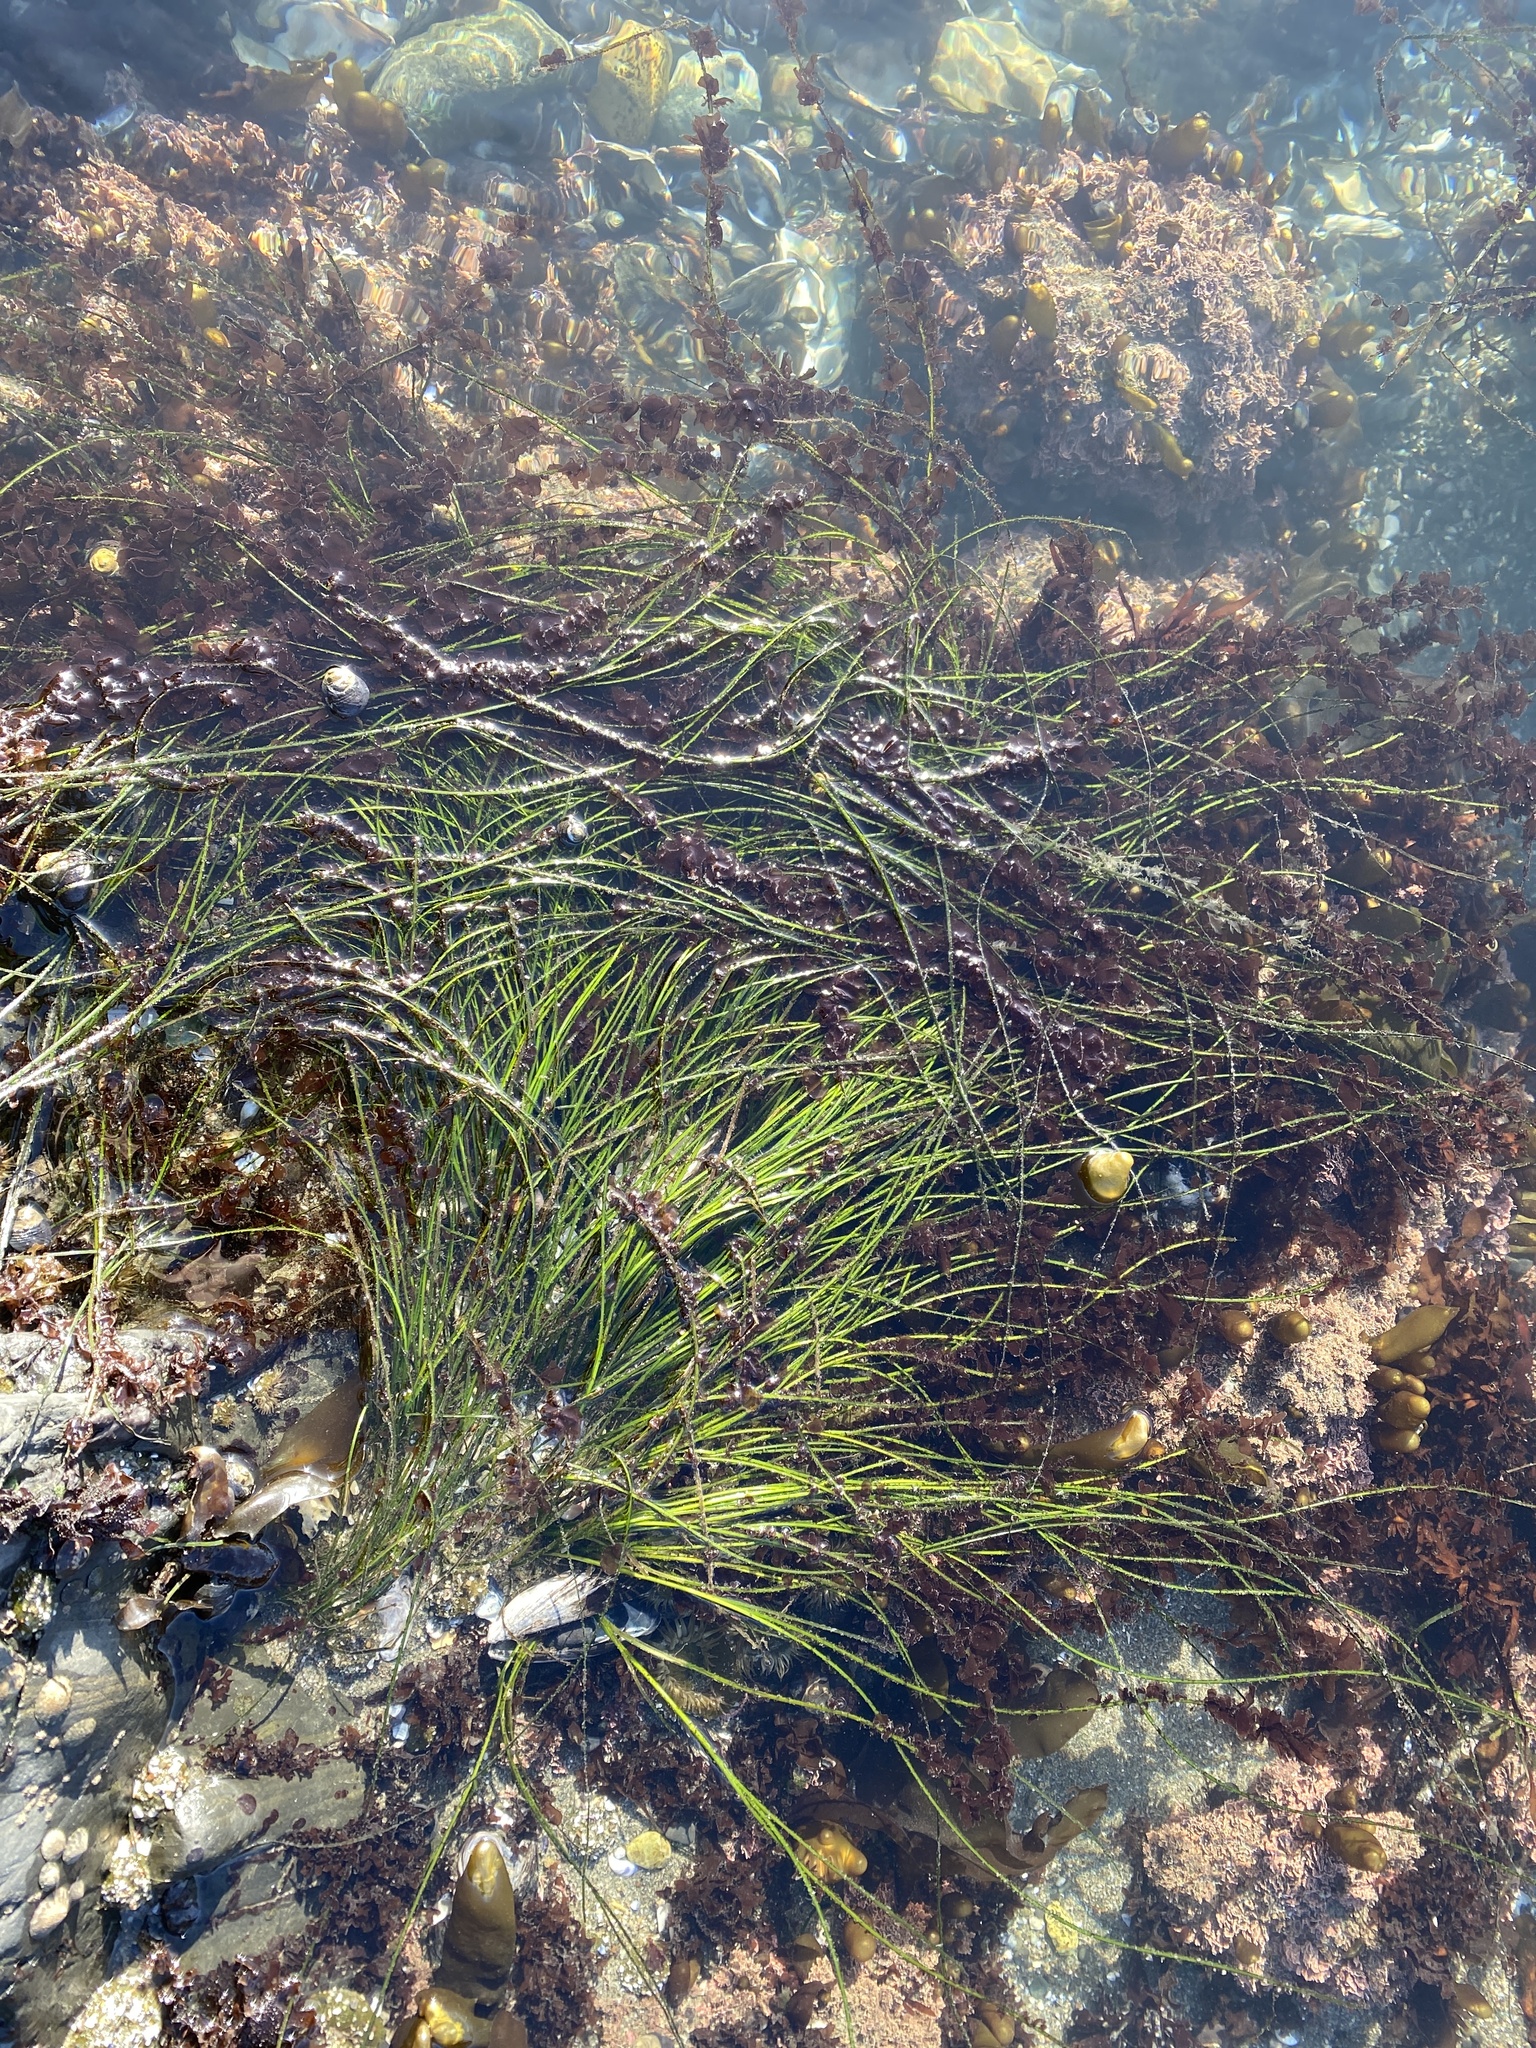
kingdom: Plantae
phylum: Tracheophyta
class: Liliopsida
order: Alismatales
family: Zosteraceae
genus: Phyllospadix
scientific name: Phyllospadix torreyi
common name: Surfgrass
